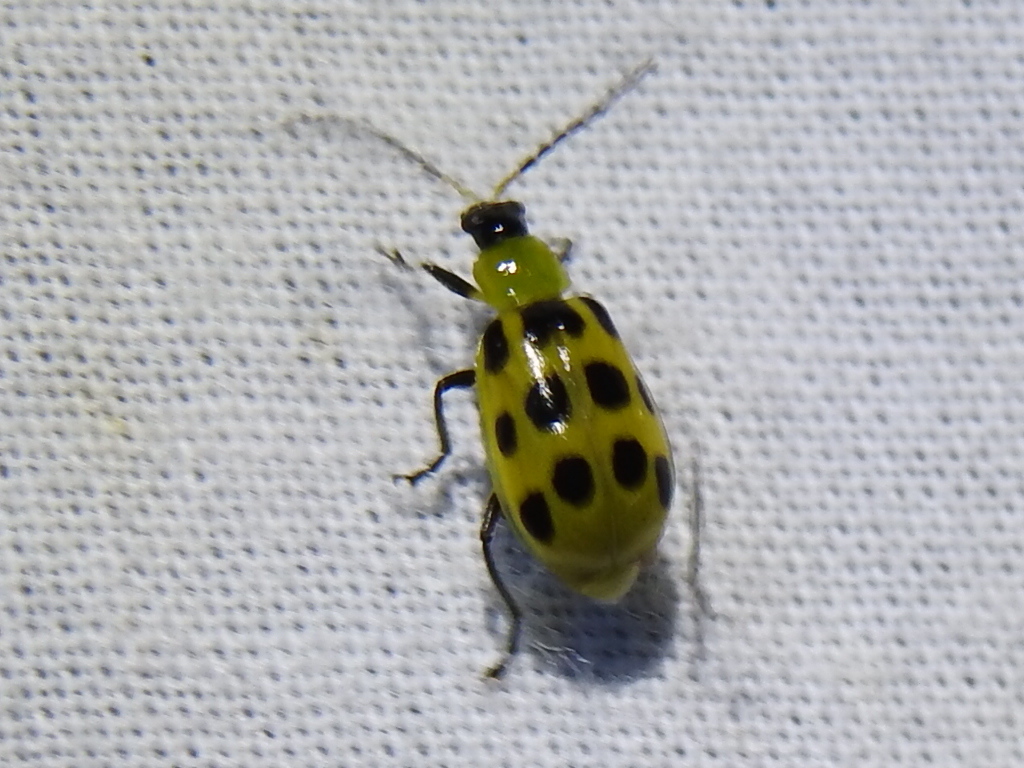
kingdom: Animalia
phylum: Arthropoda
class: Insecta
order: Coleoptera
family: Chrysomelidae
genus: Diabrotica
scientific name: Diabrotica undecimpunctata
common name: Spotted cucumber beetle
